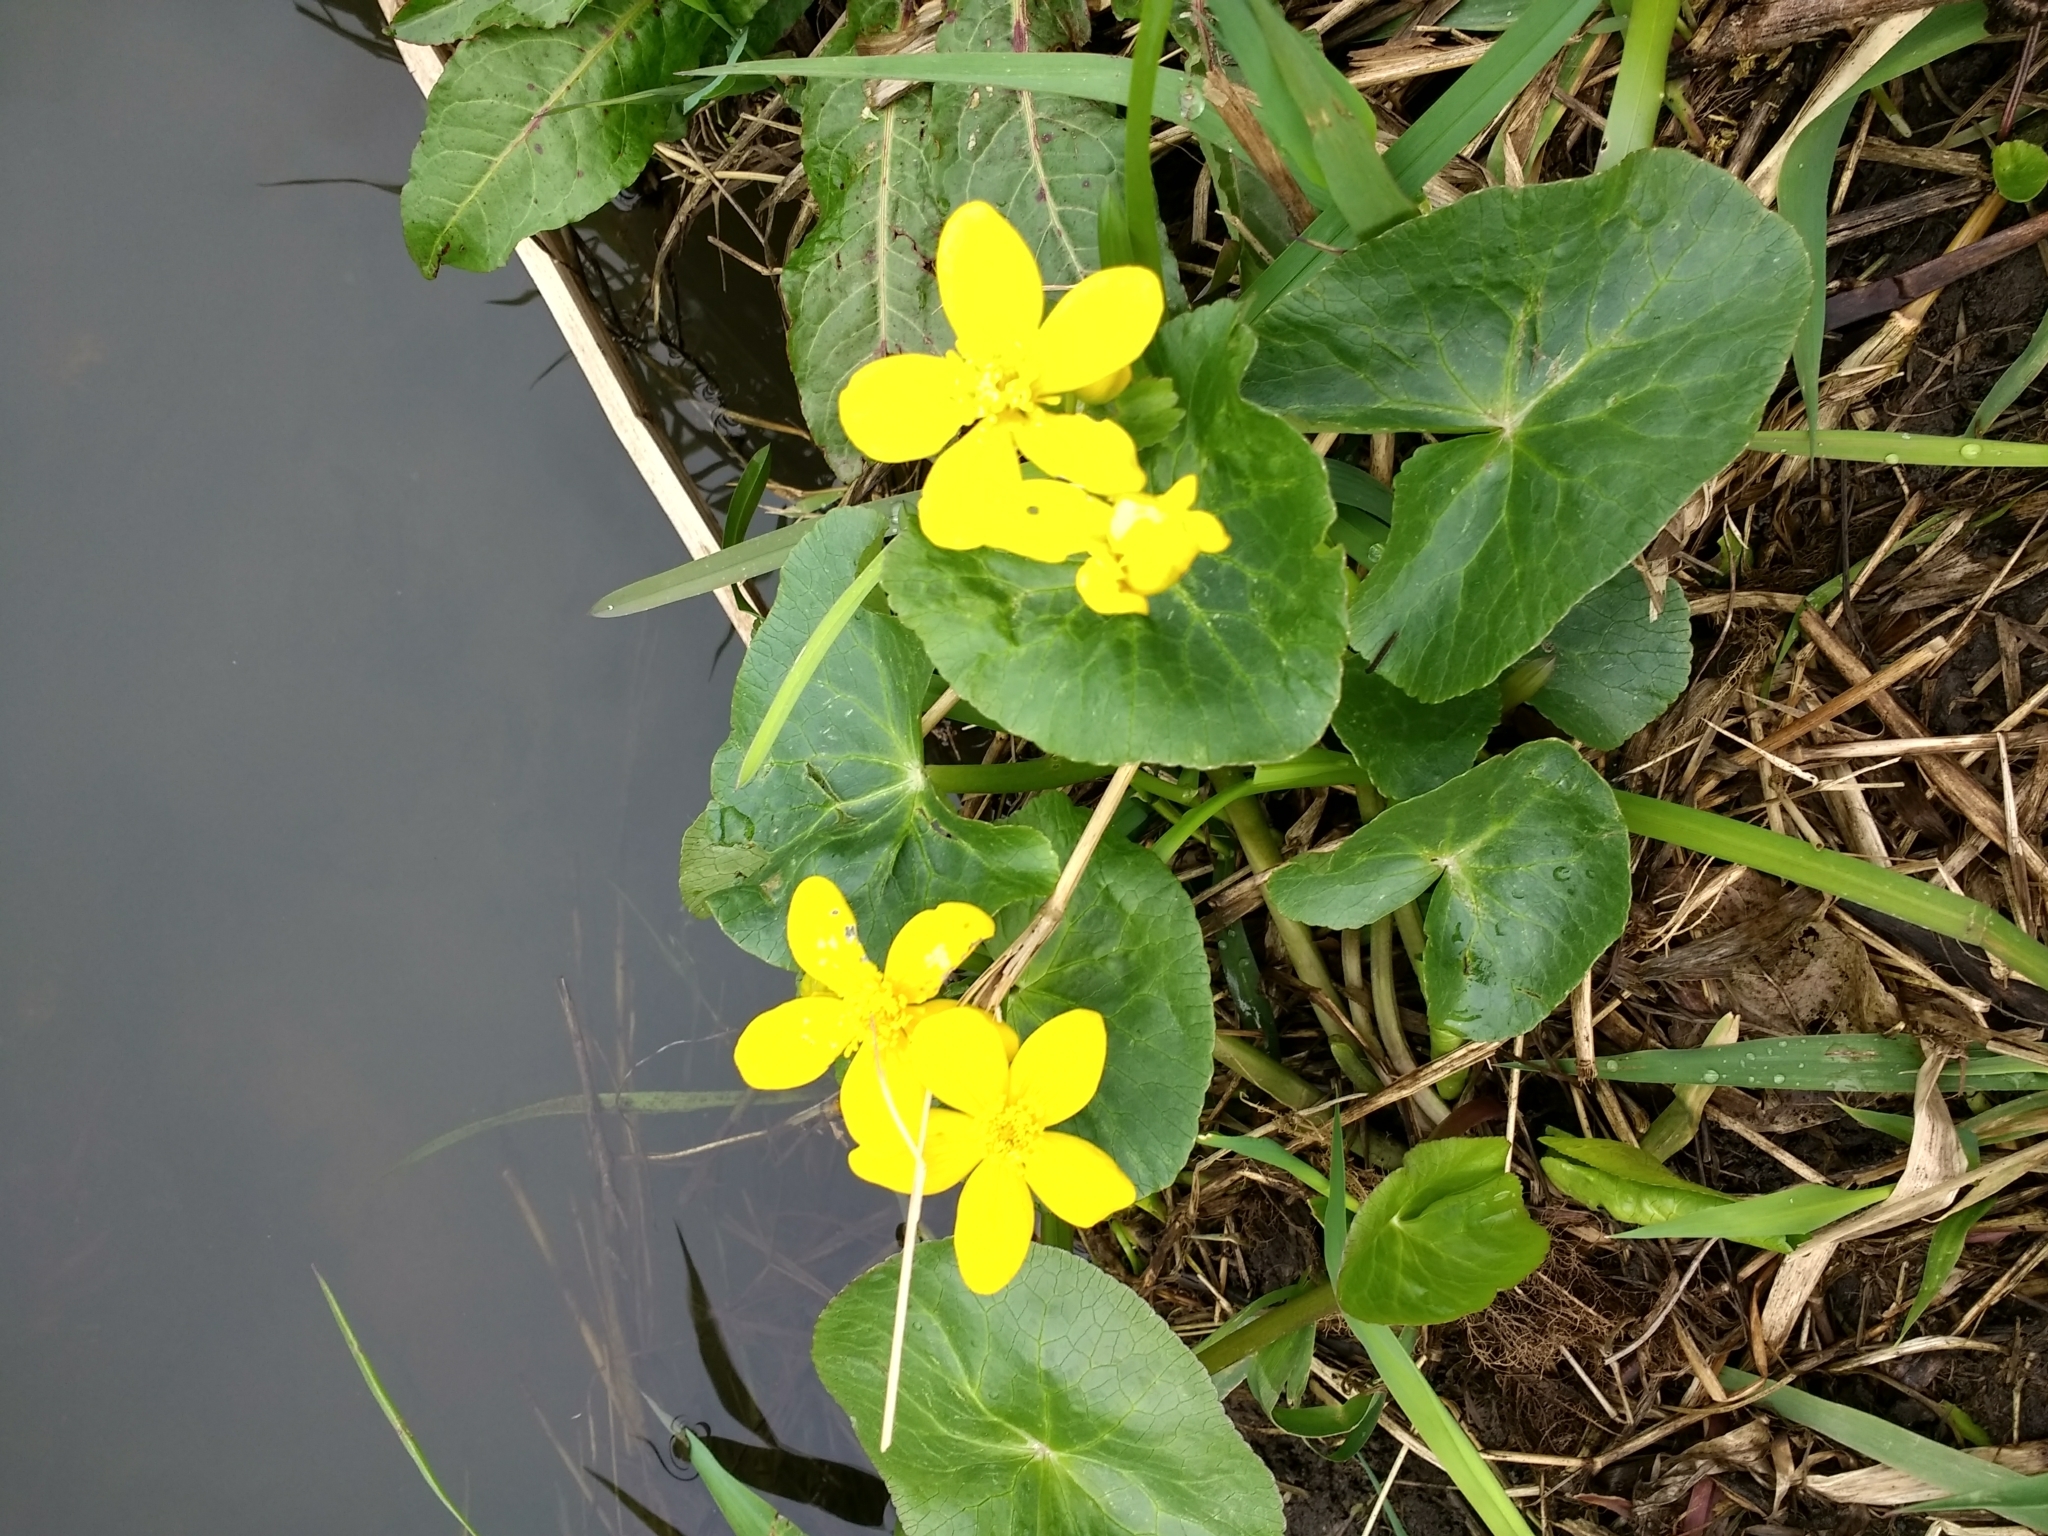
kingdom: Plantae
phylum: Tracheophyta
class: Magnoliopsida
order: Ranunculales
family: Ranunculaceae
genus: Caltha
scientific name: Caltha palustris
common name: Marsh marigold
